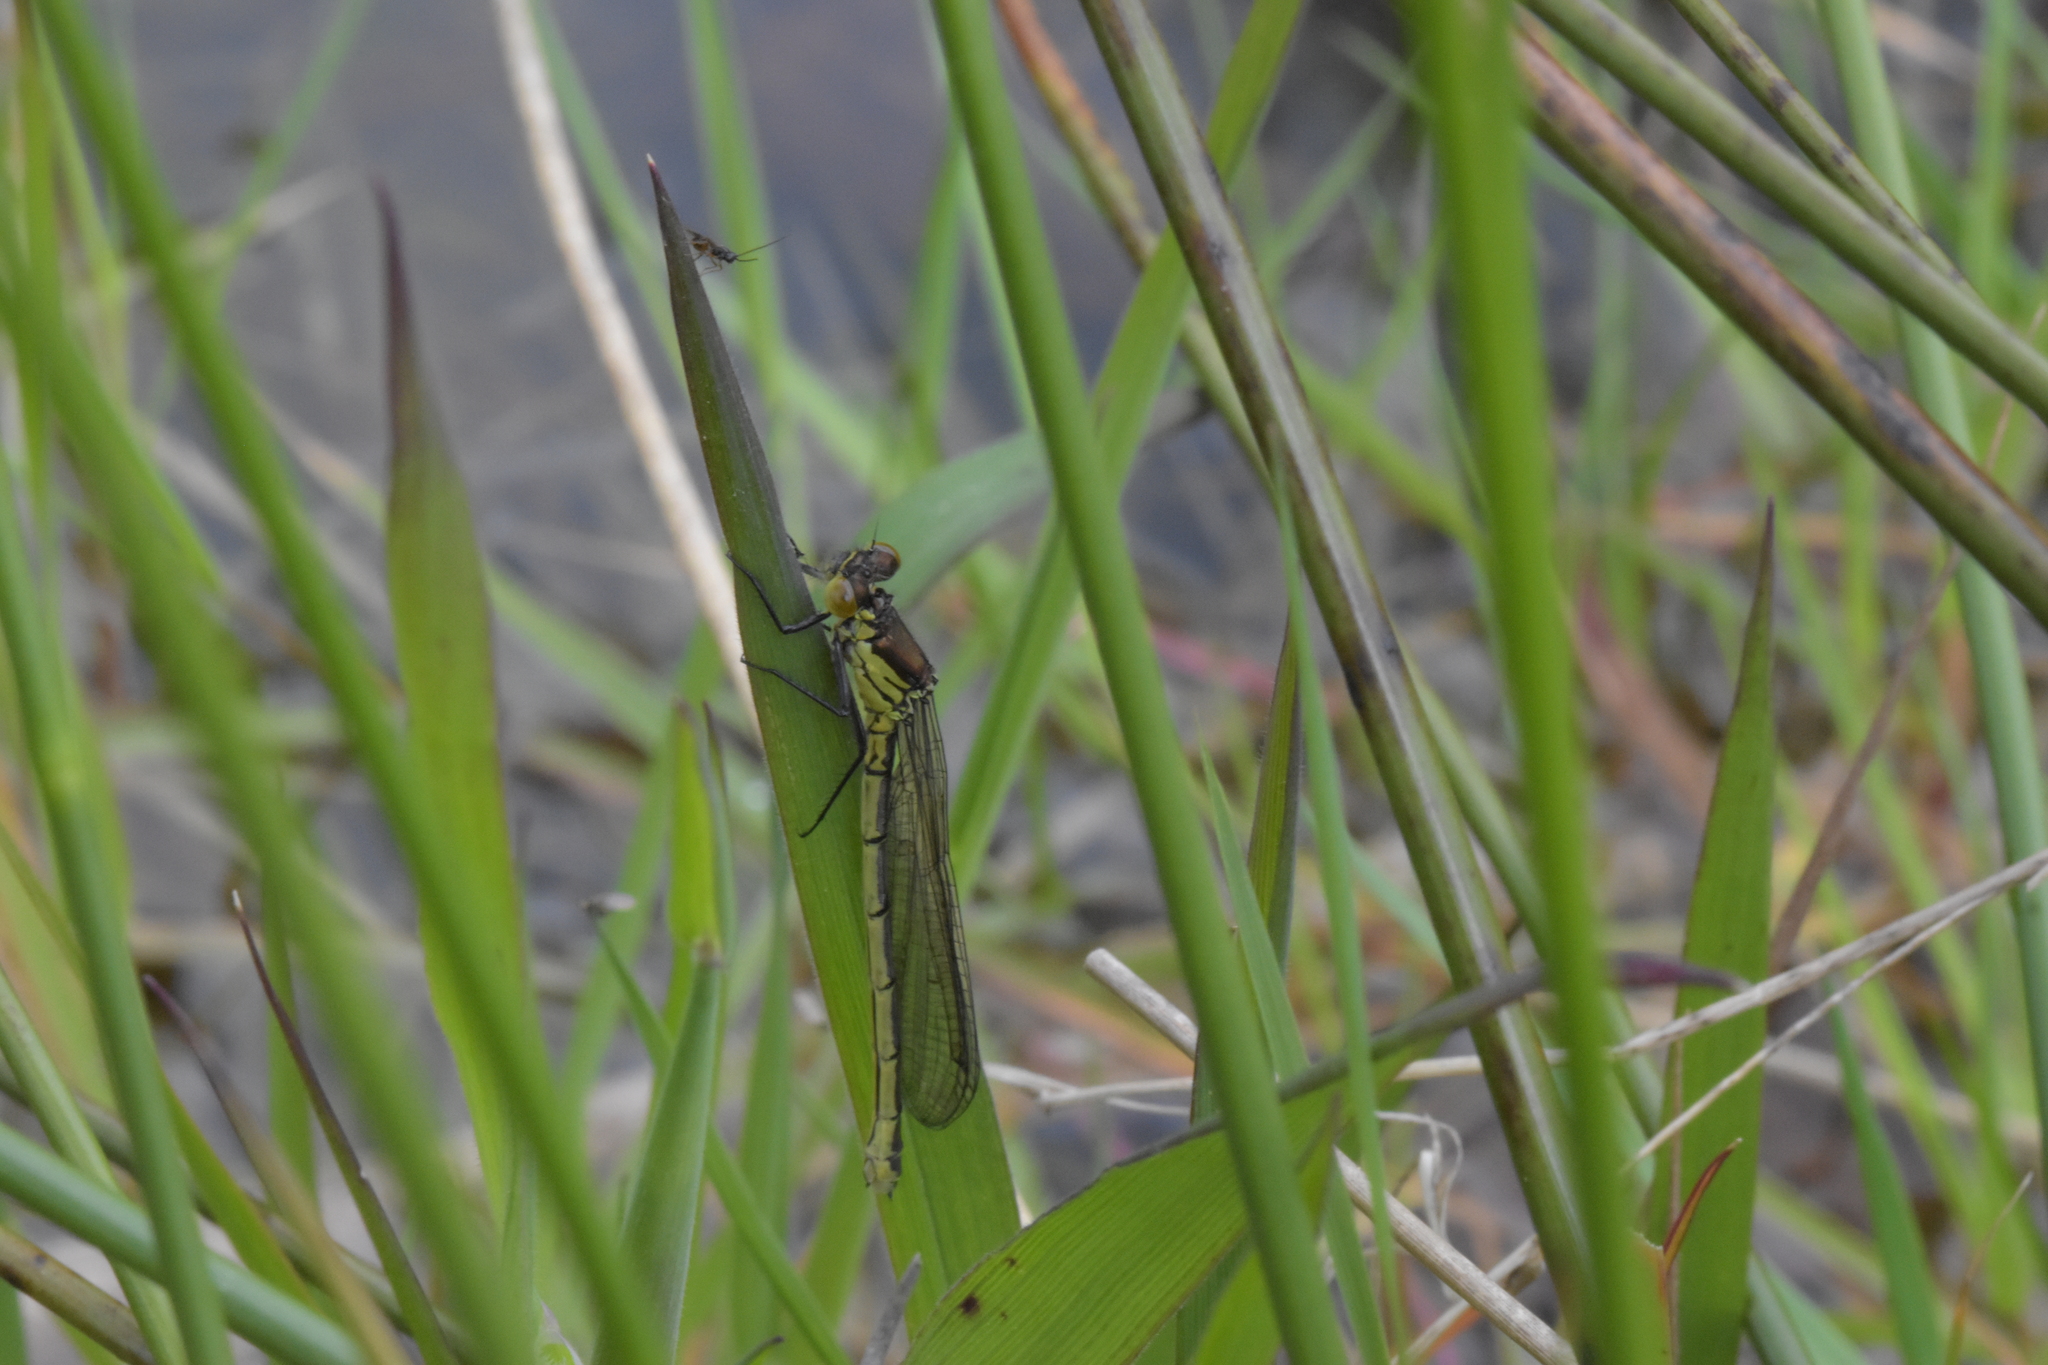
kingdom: Animalia
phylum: Arthropoda
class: Insecta
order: Odonata
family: Coenagrionidae
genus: Erythromma
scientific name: Erythromma najas
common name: Red-eyed damselfly
